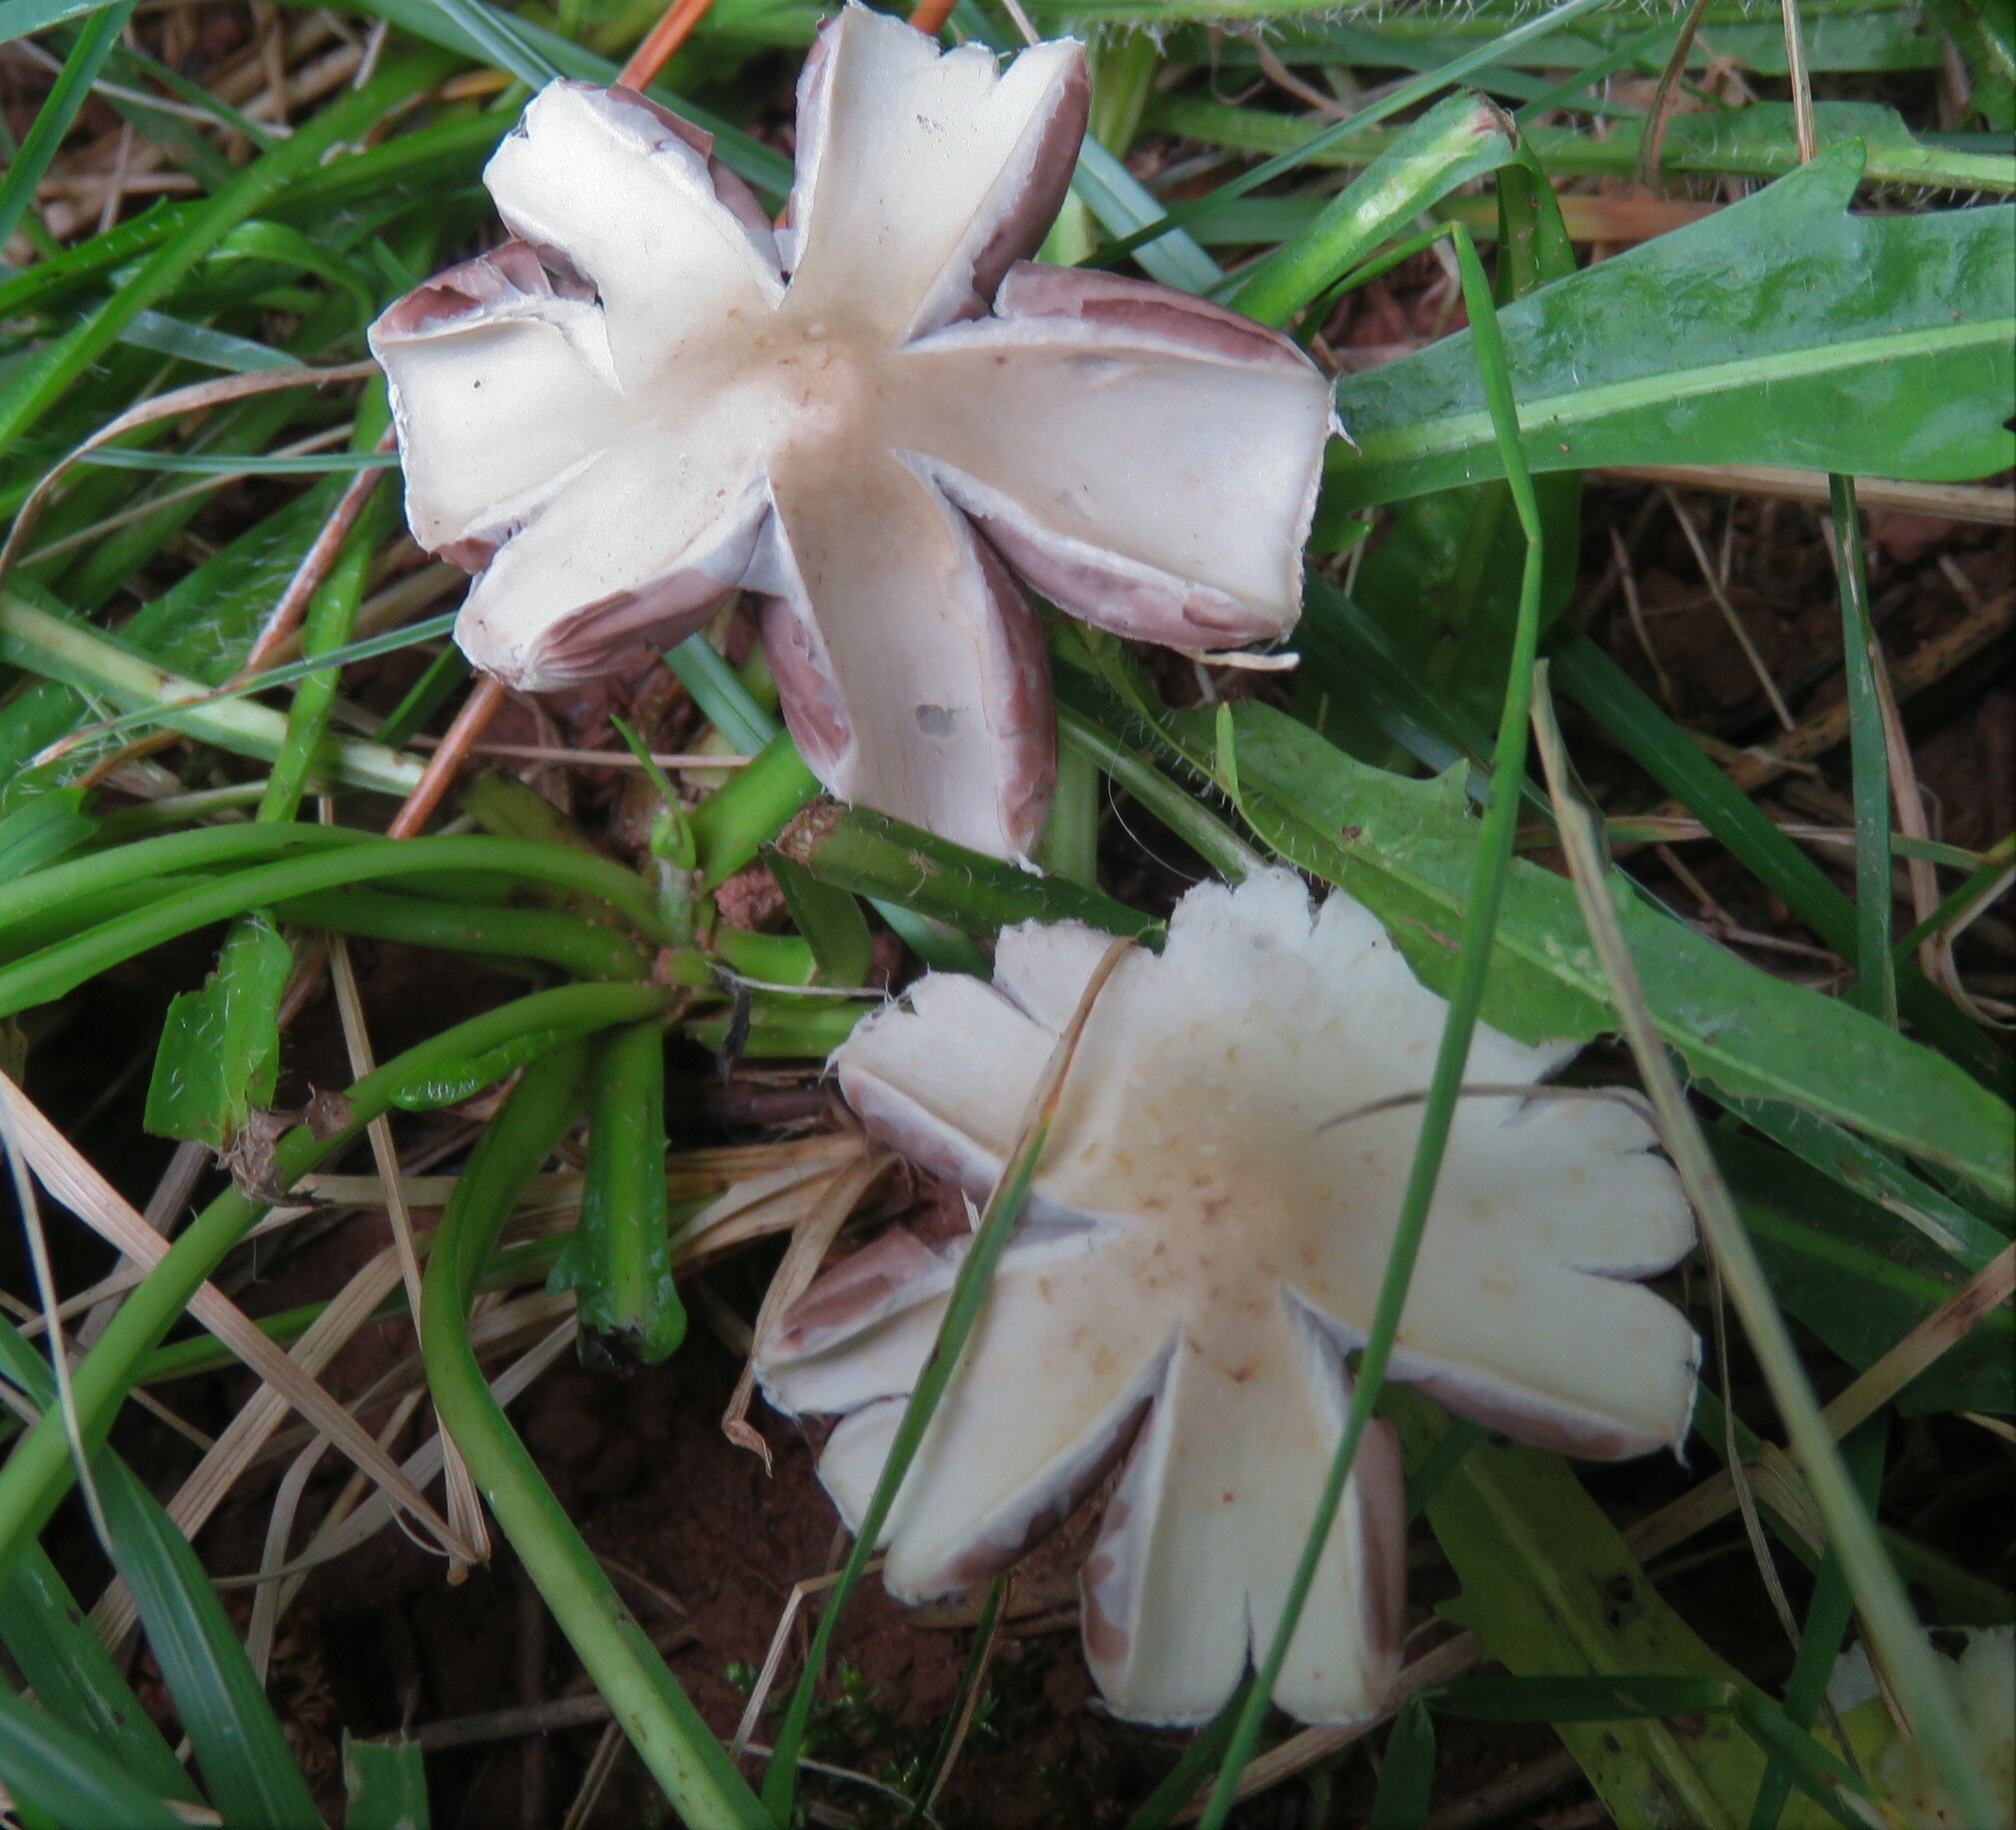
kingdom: Fungi
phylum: Basidiomycota
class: Agaricomycetes
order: Agaricales
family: Psathyrellaceae
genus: Candolleomyces
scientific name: Candolleomyces candolleanus
